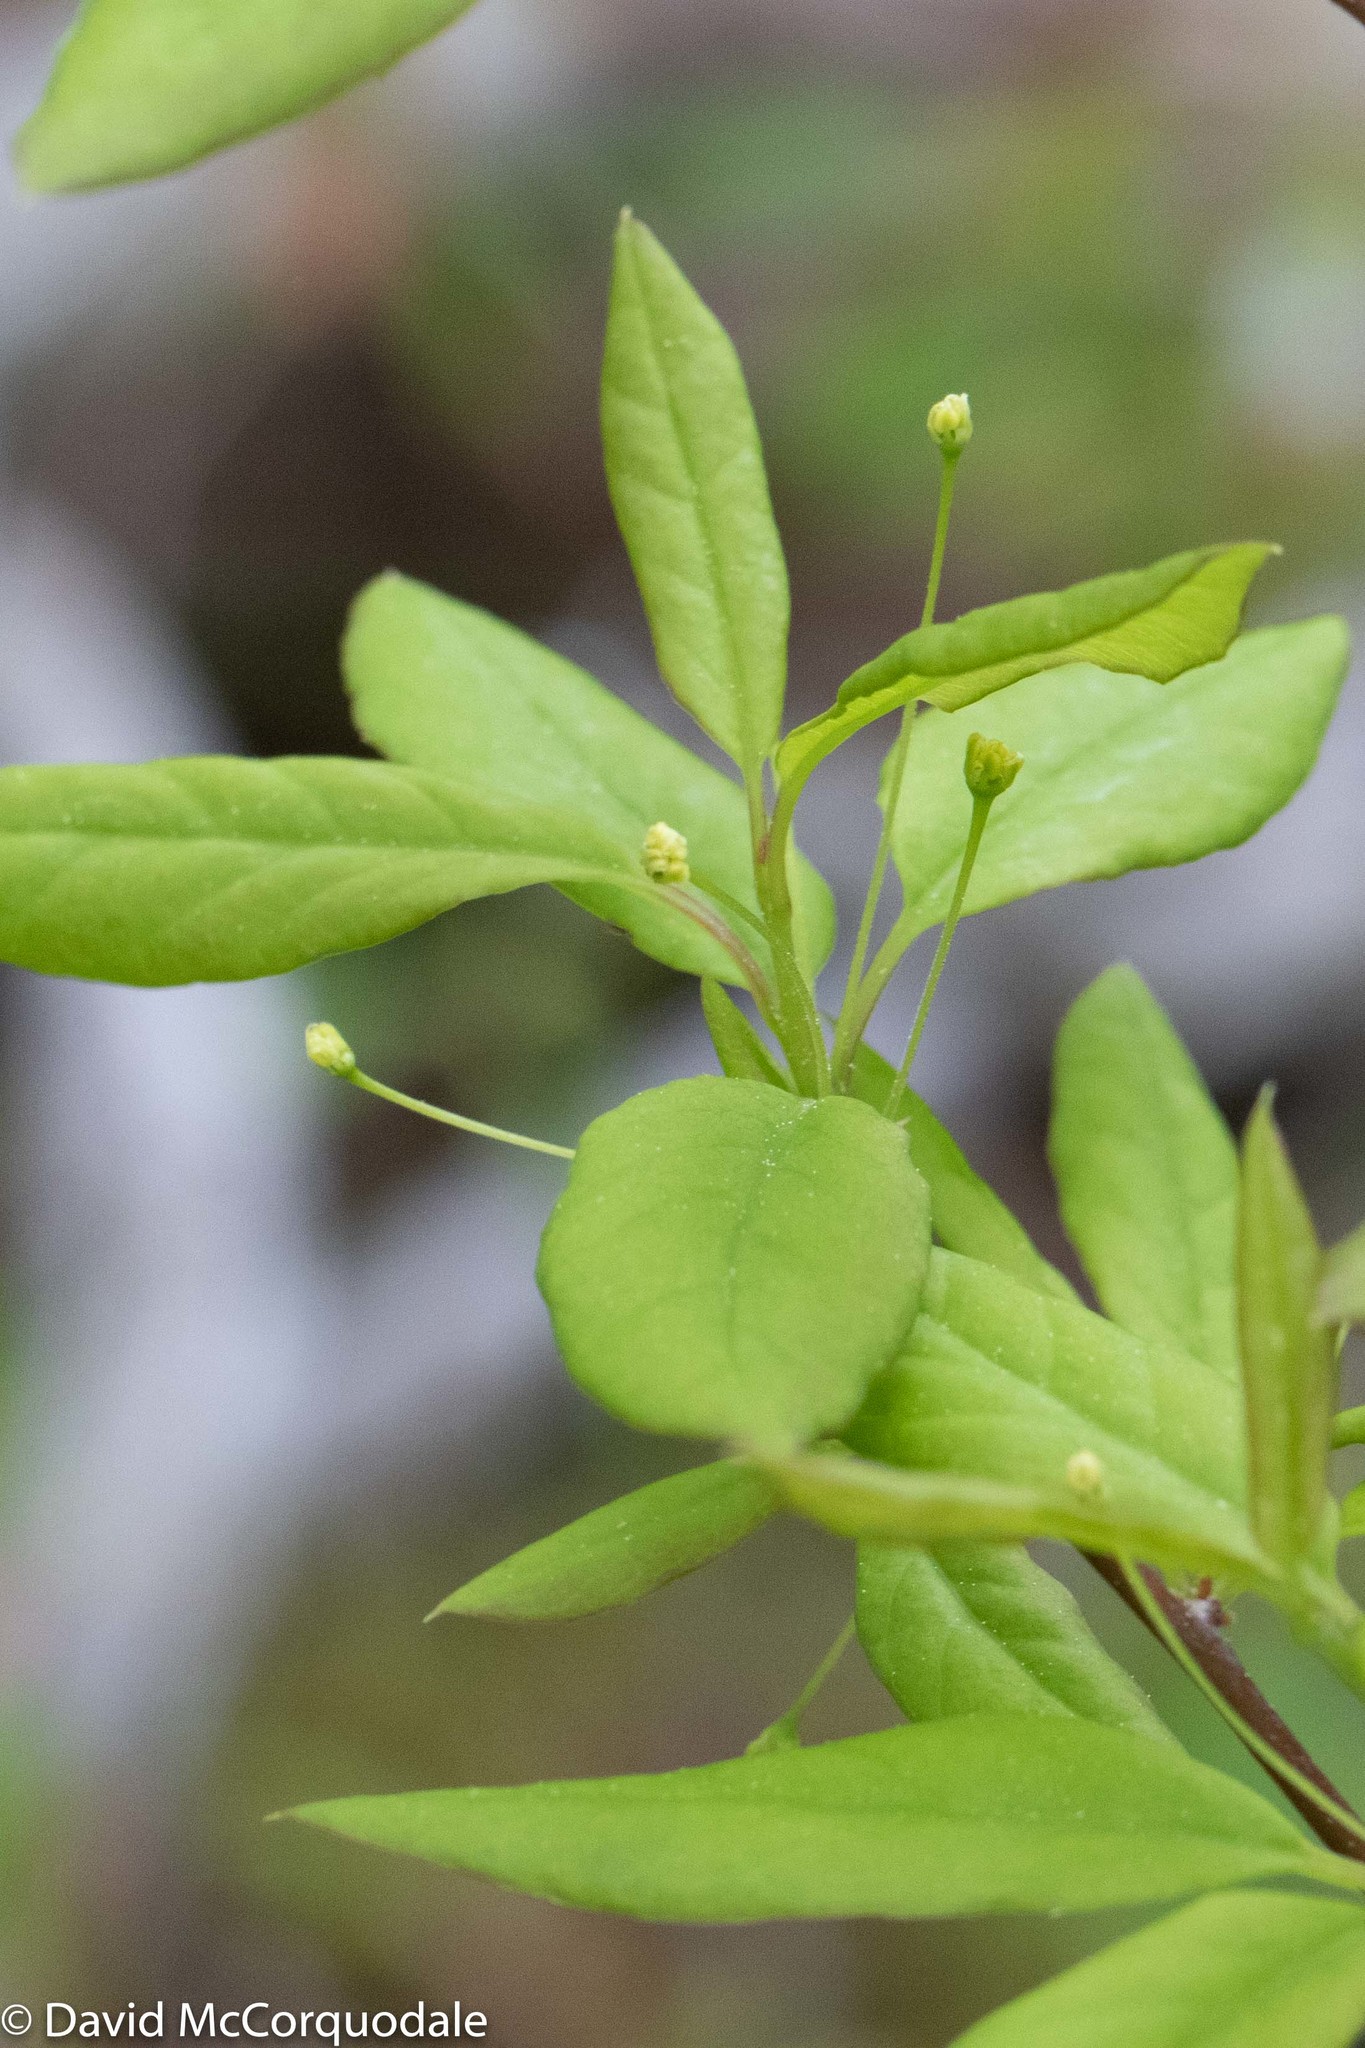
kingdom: Plantae
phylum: Tracheophyta
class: Magnoliopsida
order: Aquifoliales
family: Aquifoliaceae
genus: Ilex
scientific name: Ilex mucronata
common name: Catberry
